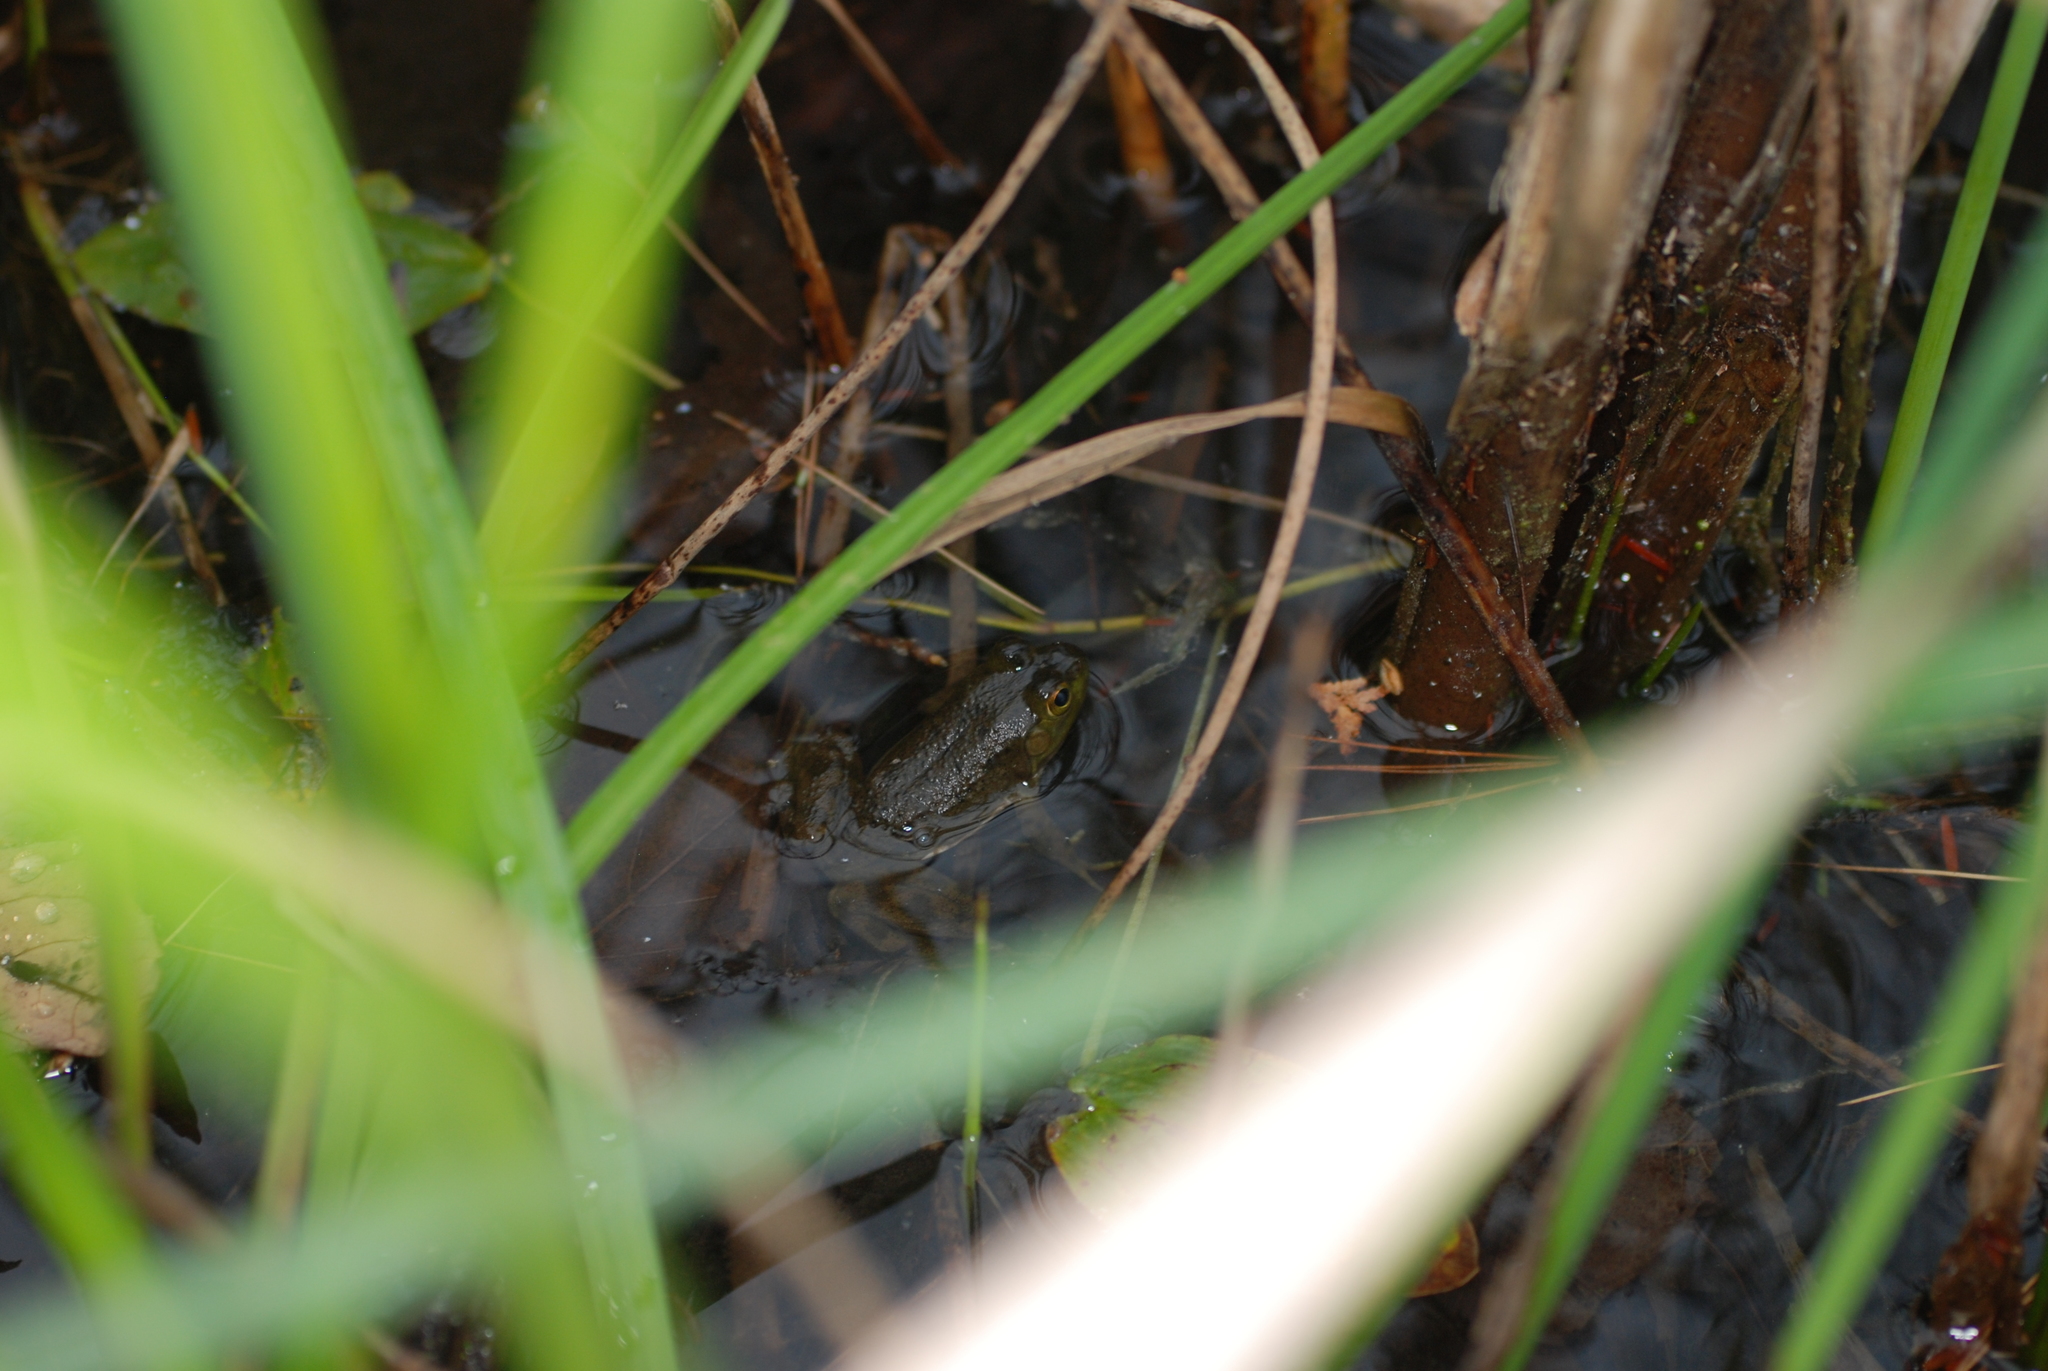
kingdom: Animalia
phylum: Chordata
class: Amphibia
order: Anura
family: Ranidae
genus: Lithobates
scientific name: Lithobates catesbeianus
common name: American bullfrog
